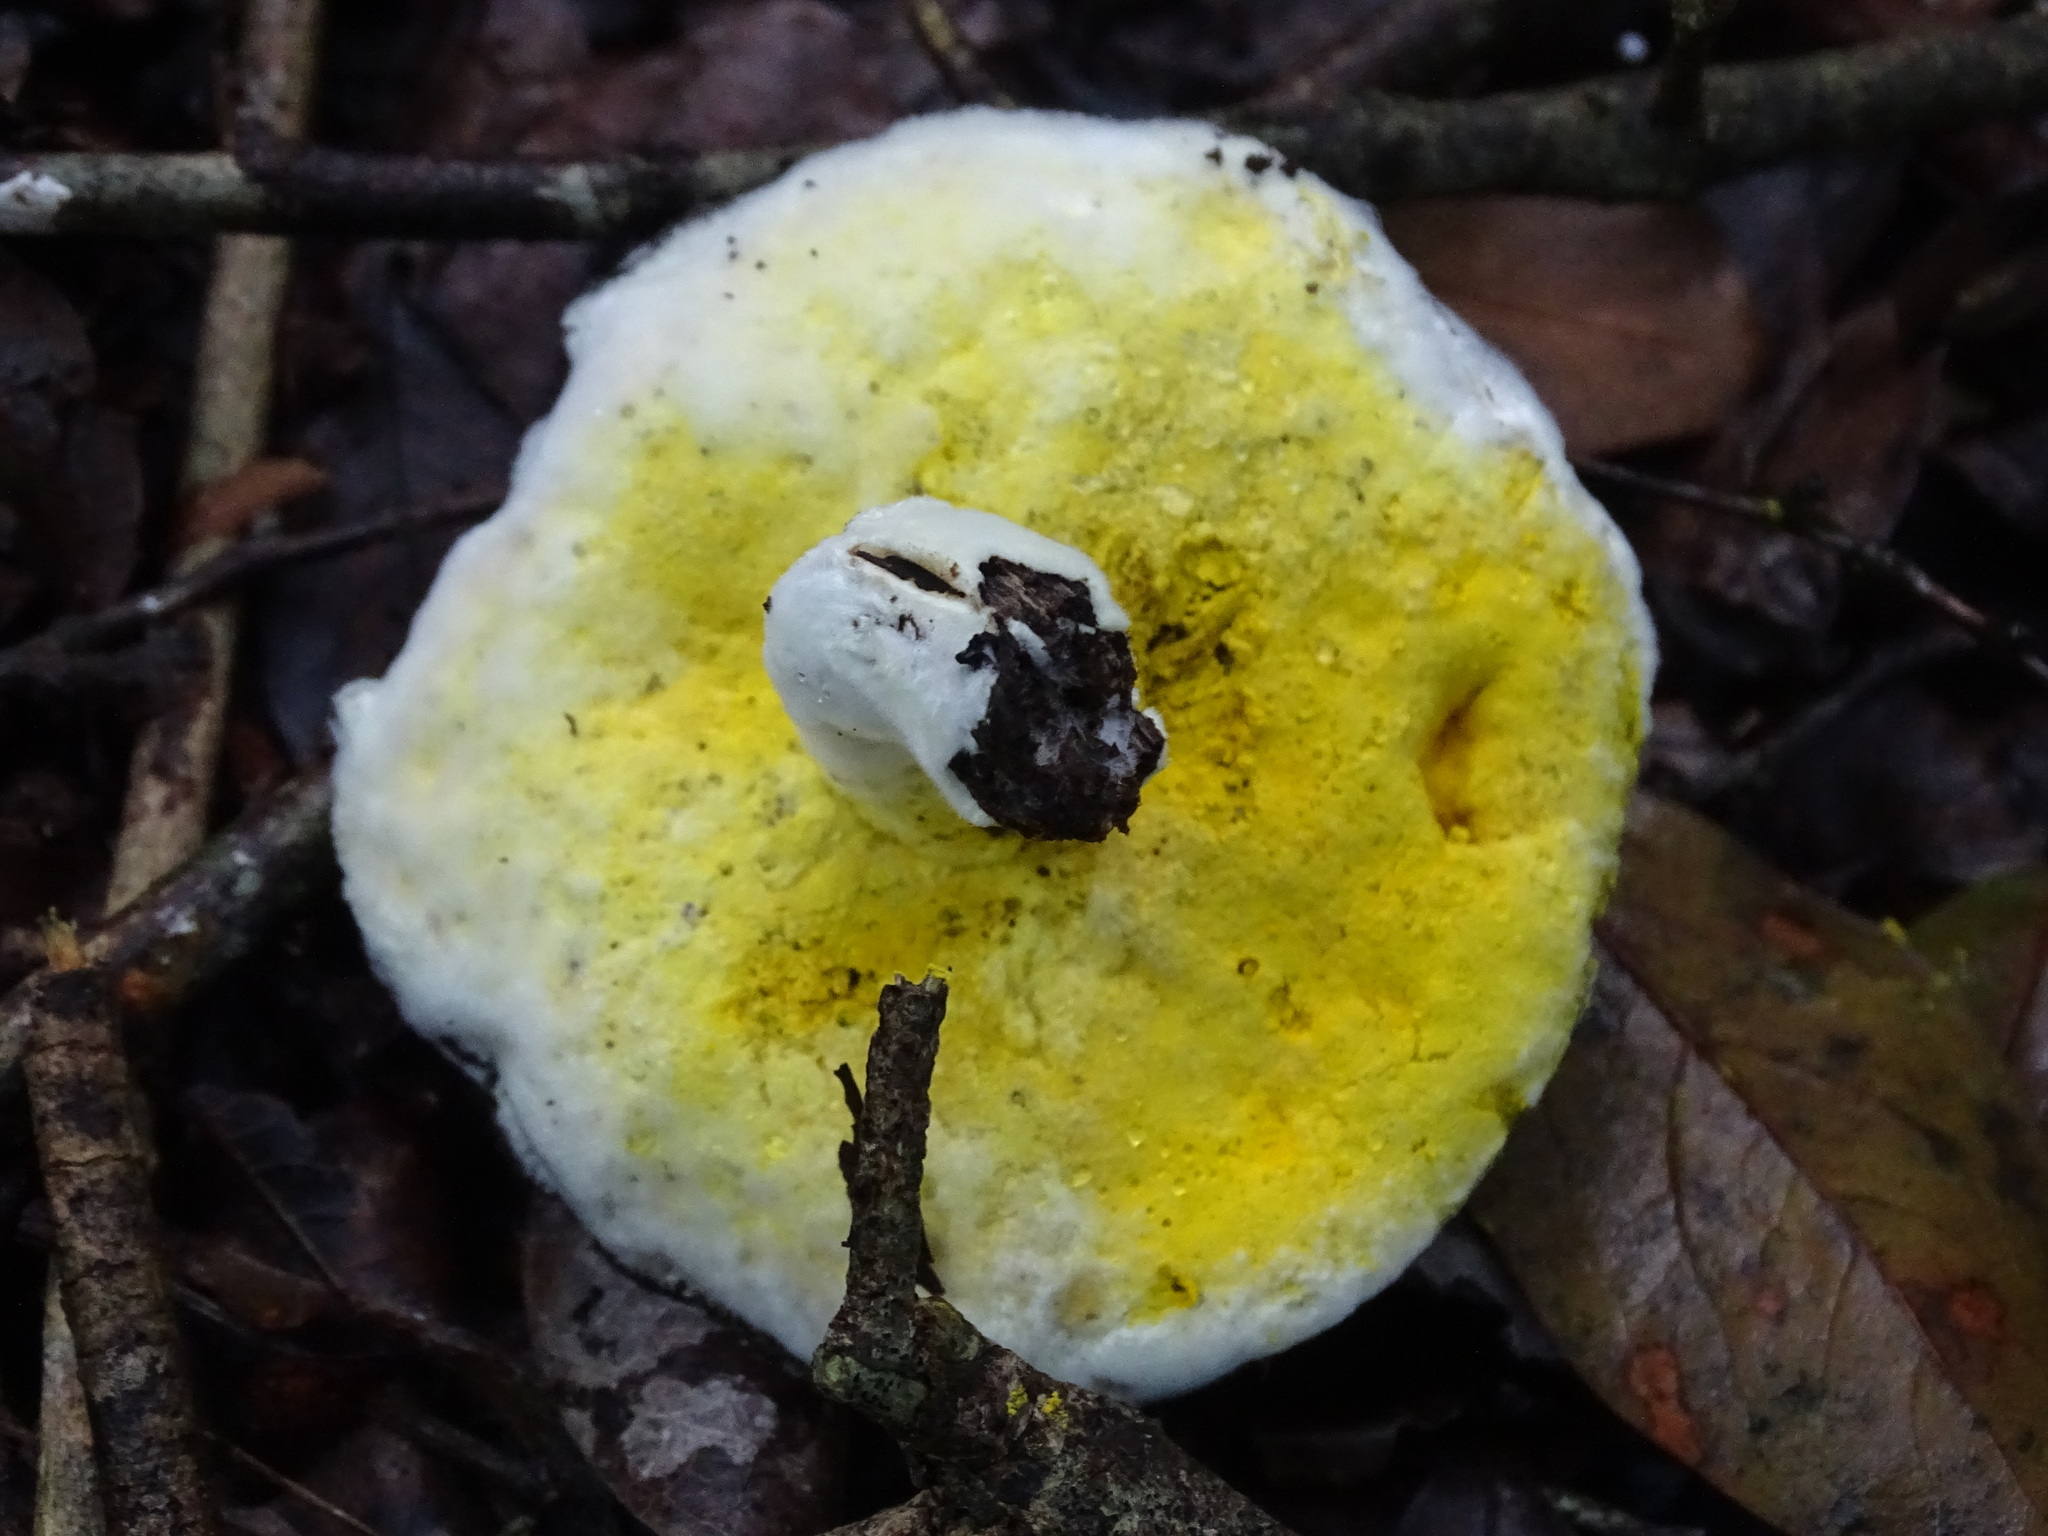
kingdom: Fungi
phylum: Ascomycota
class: Sordariomycetes
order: Hypocreales
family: Hypocreaceae
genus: Hypomyces
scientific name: Hypomyces microspermus
